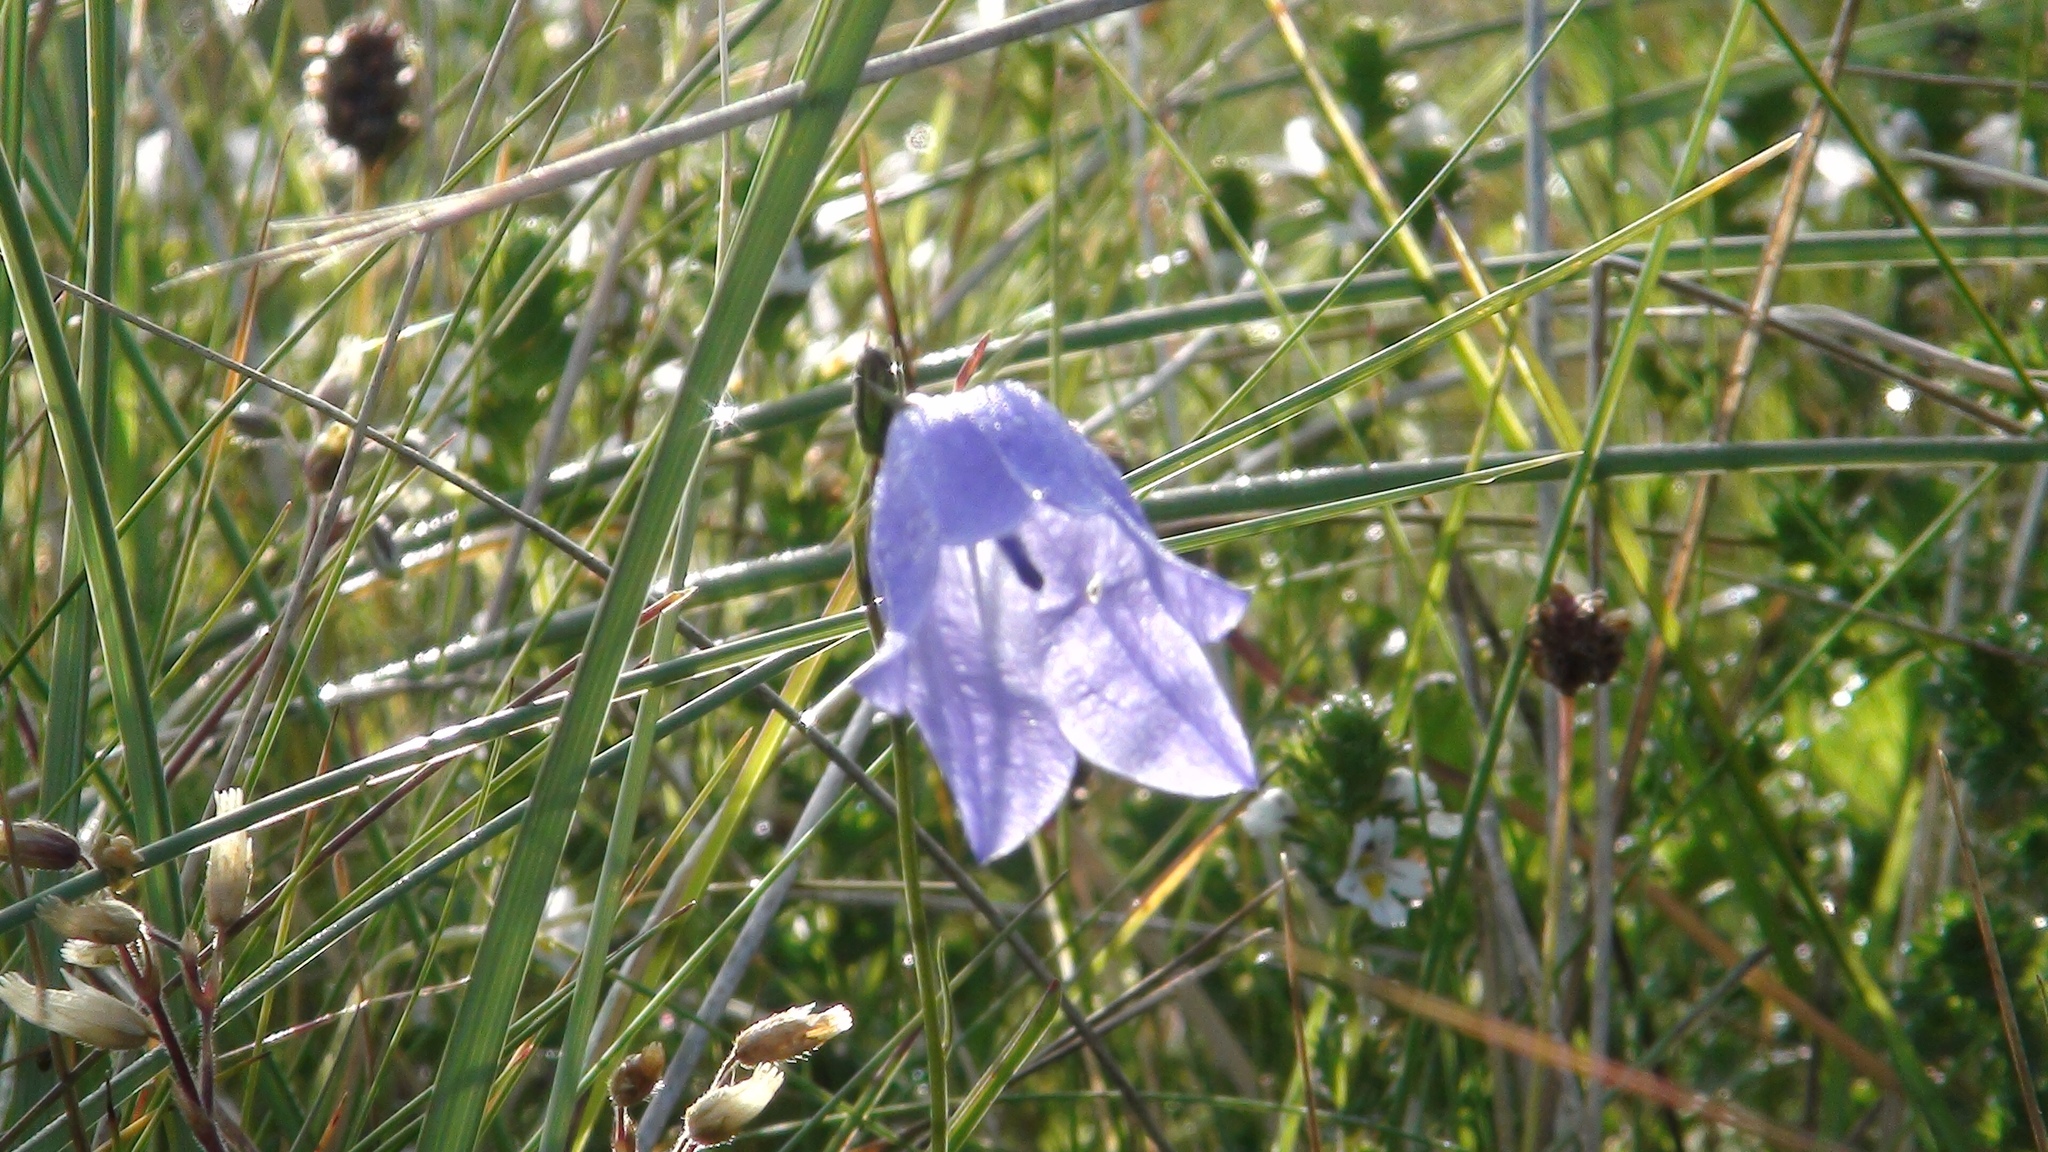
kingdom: Plantae
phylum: Tracheophyta
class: Magnoliopsida
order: Asterales
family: Campanulaceae
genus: Campanula
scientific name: Campanula rotundifolia
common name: Harebell
